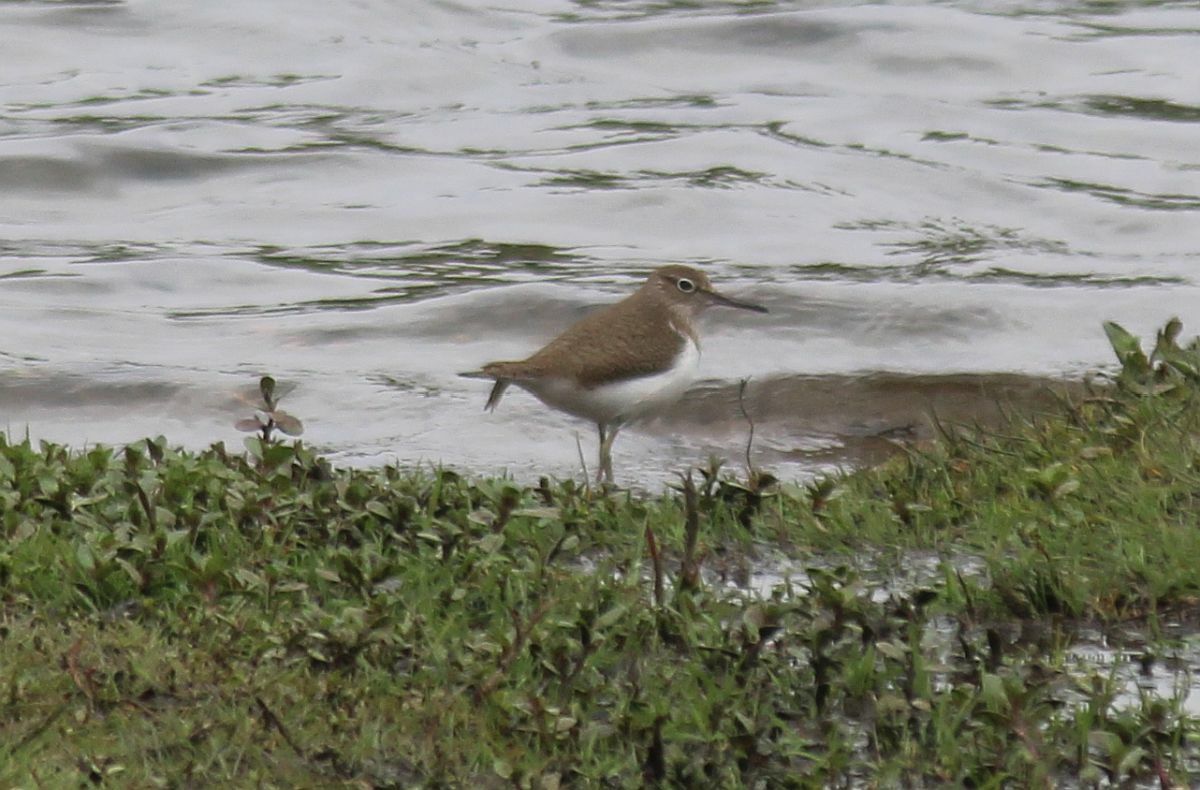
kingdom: Animalia
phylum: Chordata
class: Aves
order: Charadriiformes
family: Scolopacidae
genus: Actitis
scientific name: Actitis hypoleucos
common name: Common sandpiper
